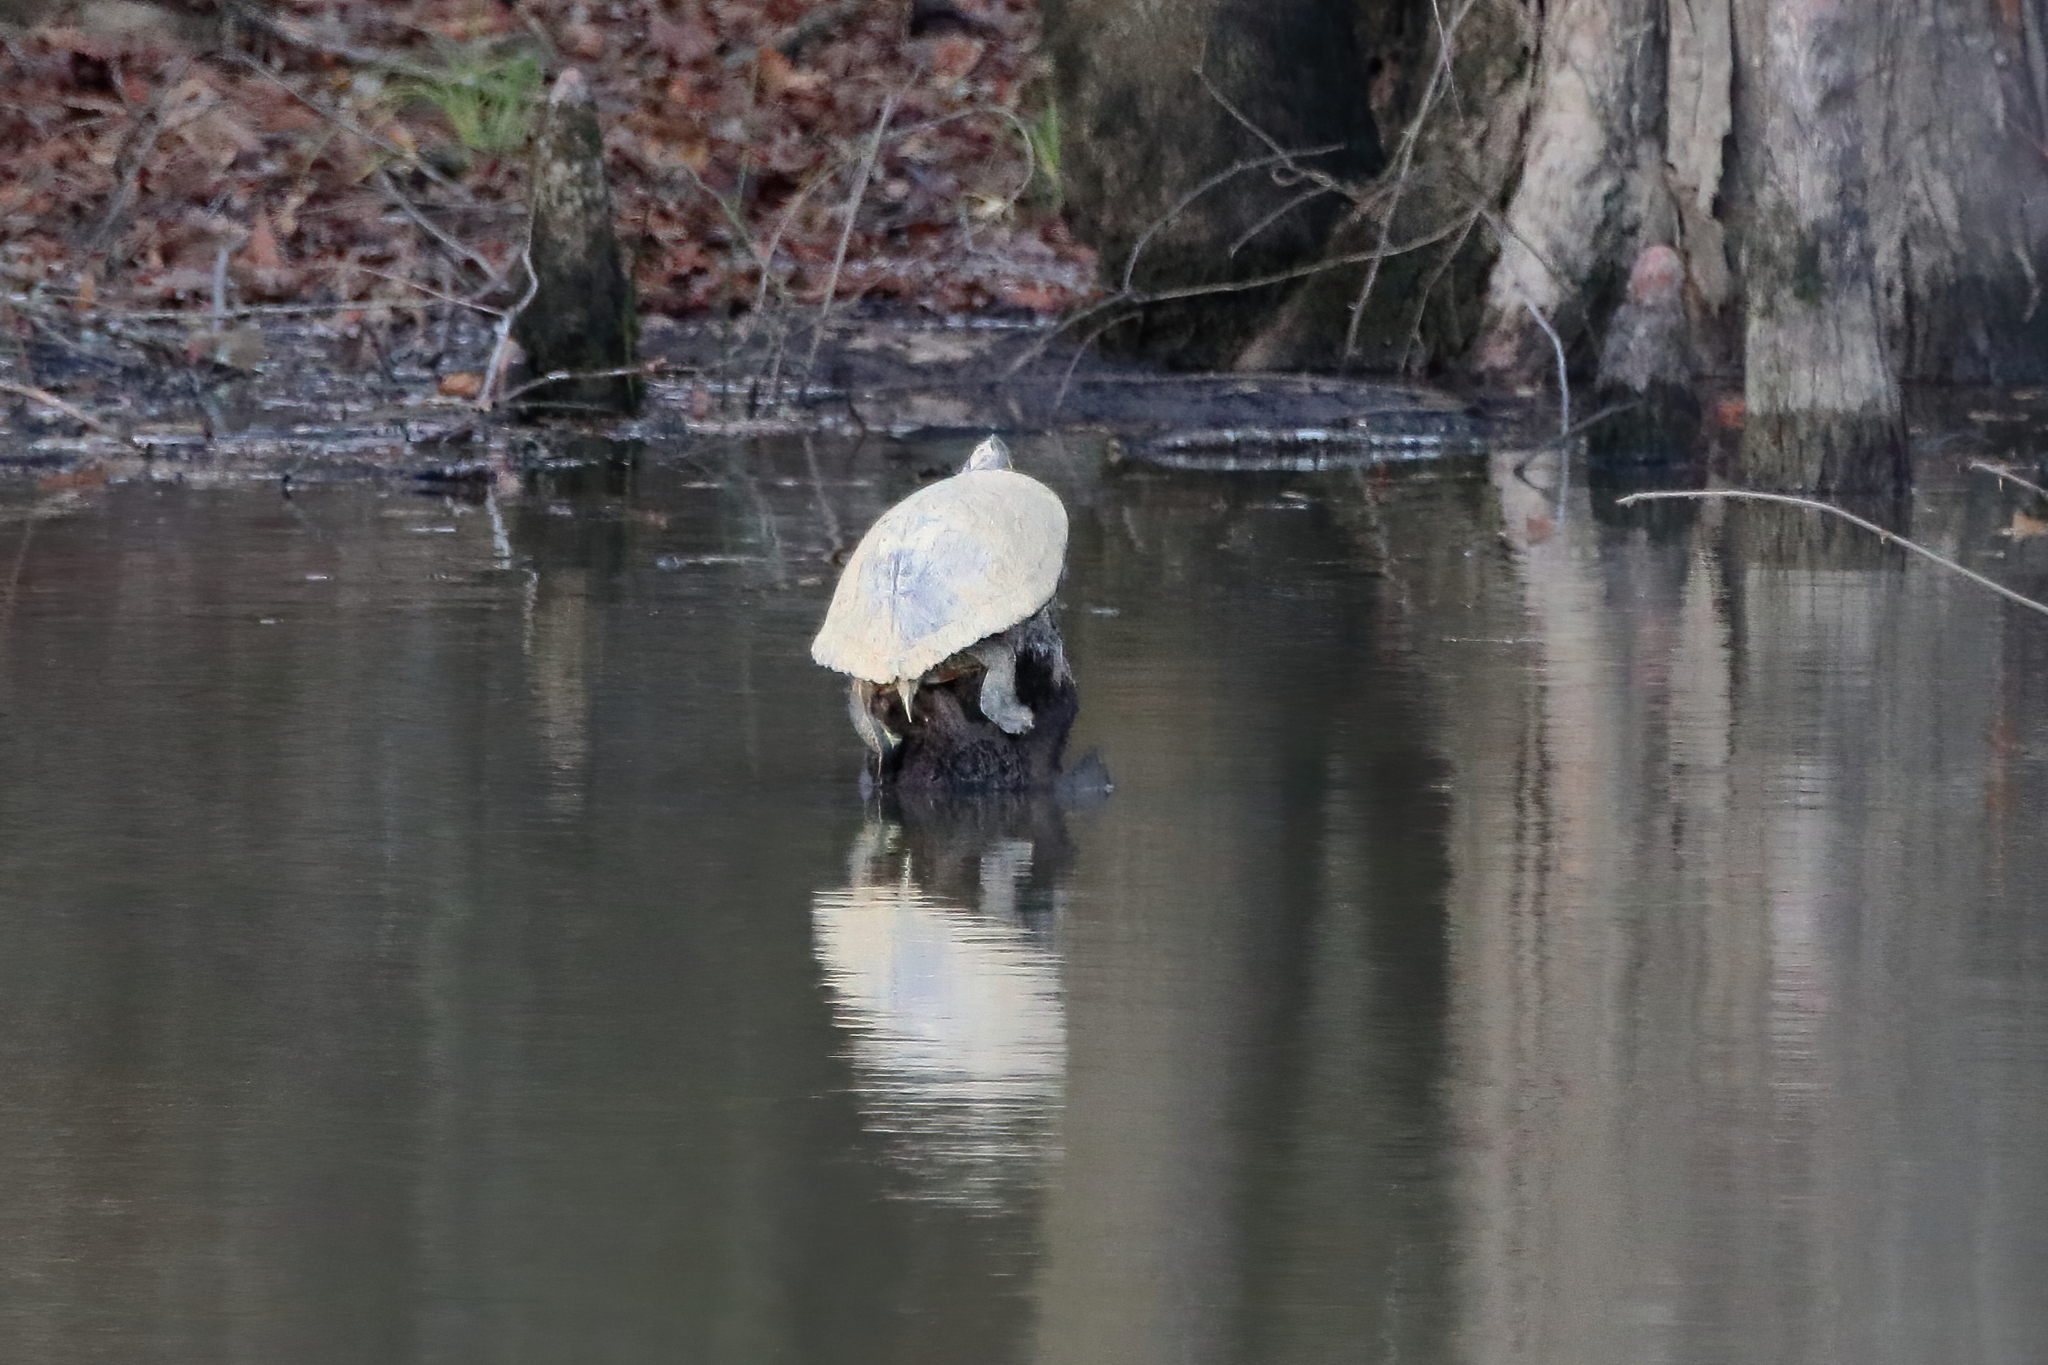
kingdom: Animalia
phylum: Chordata
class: Testudines
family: Emydidae
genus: Trachemys
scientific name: Trachemys scripta
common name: Slider
